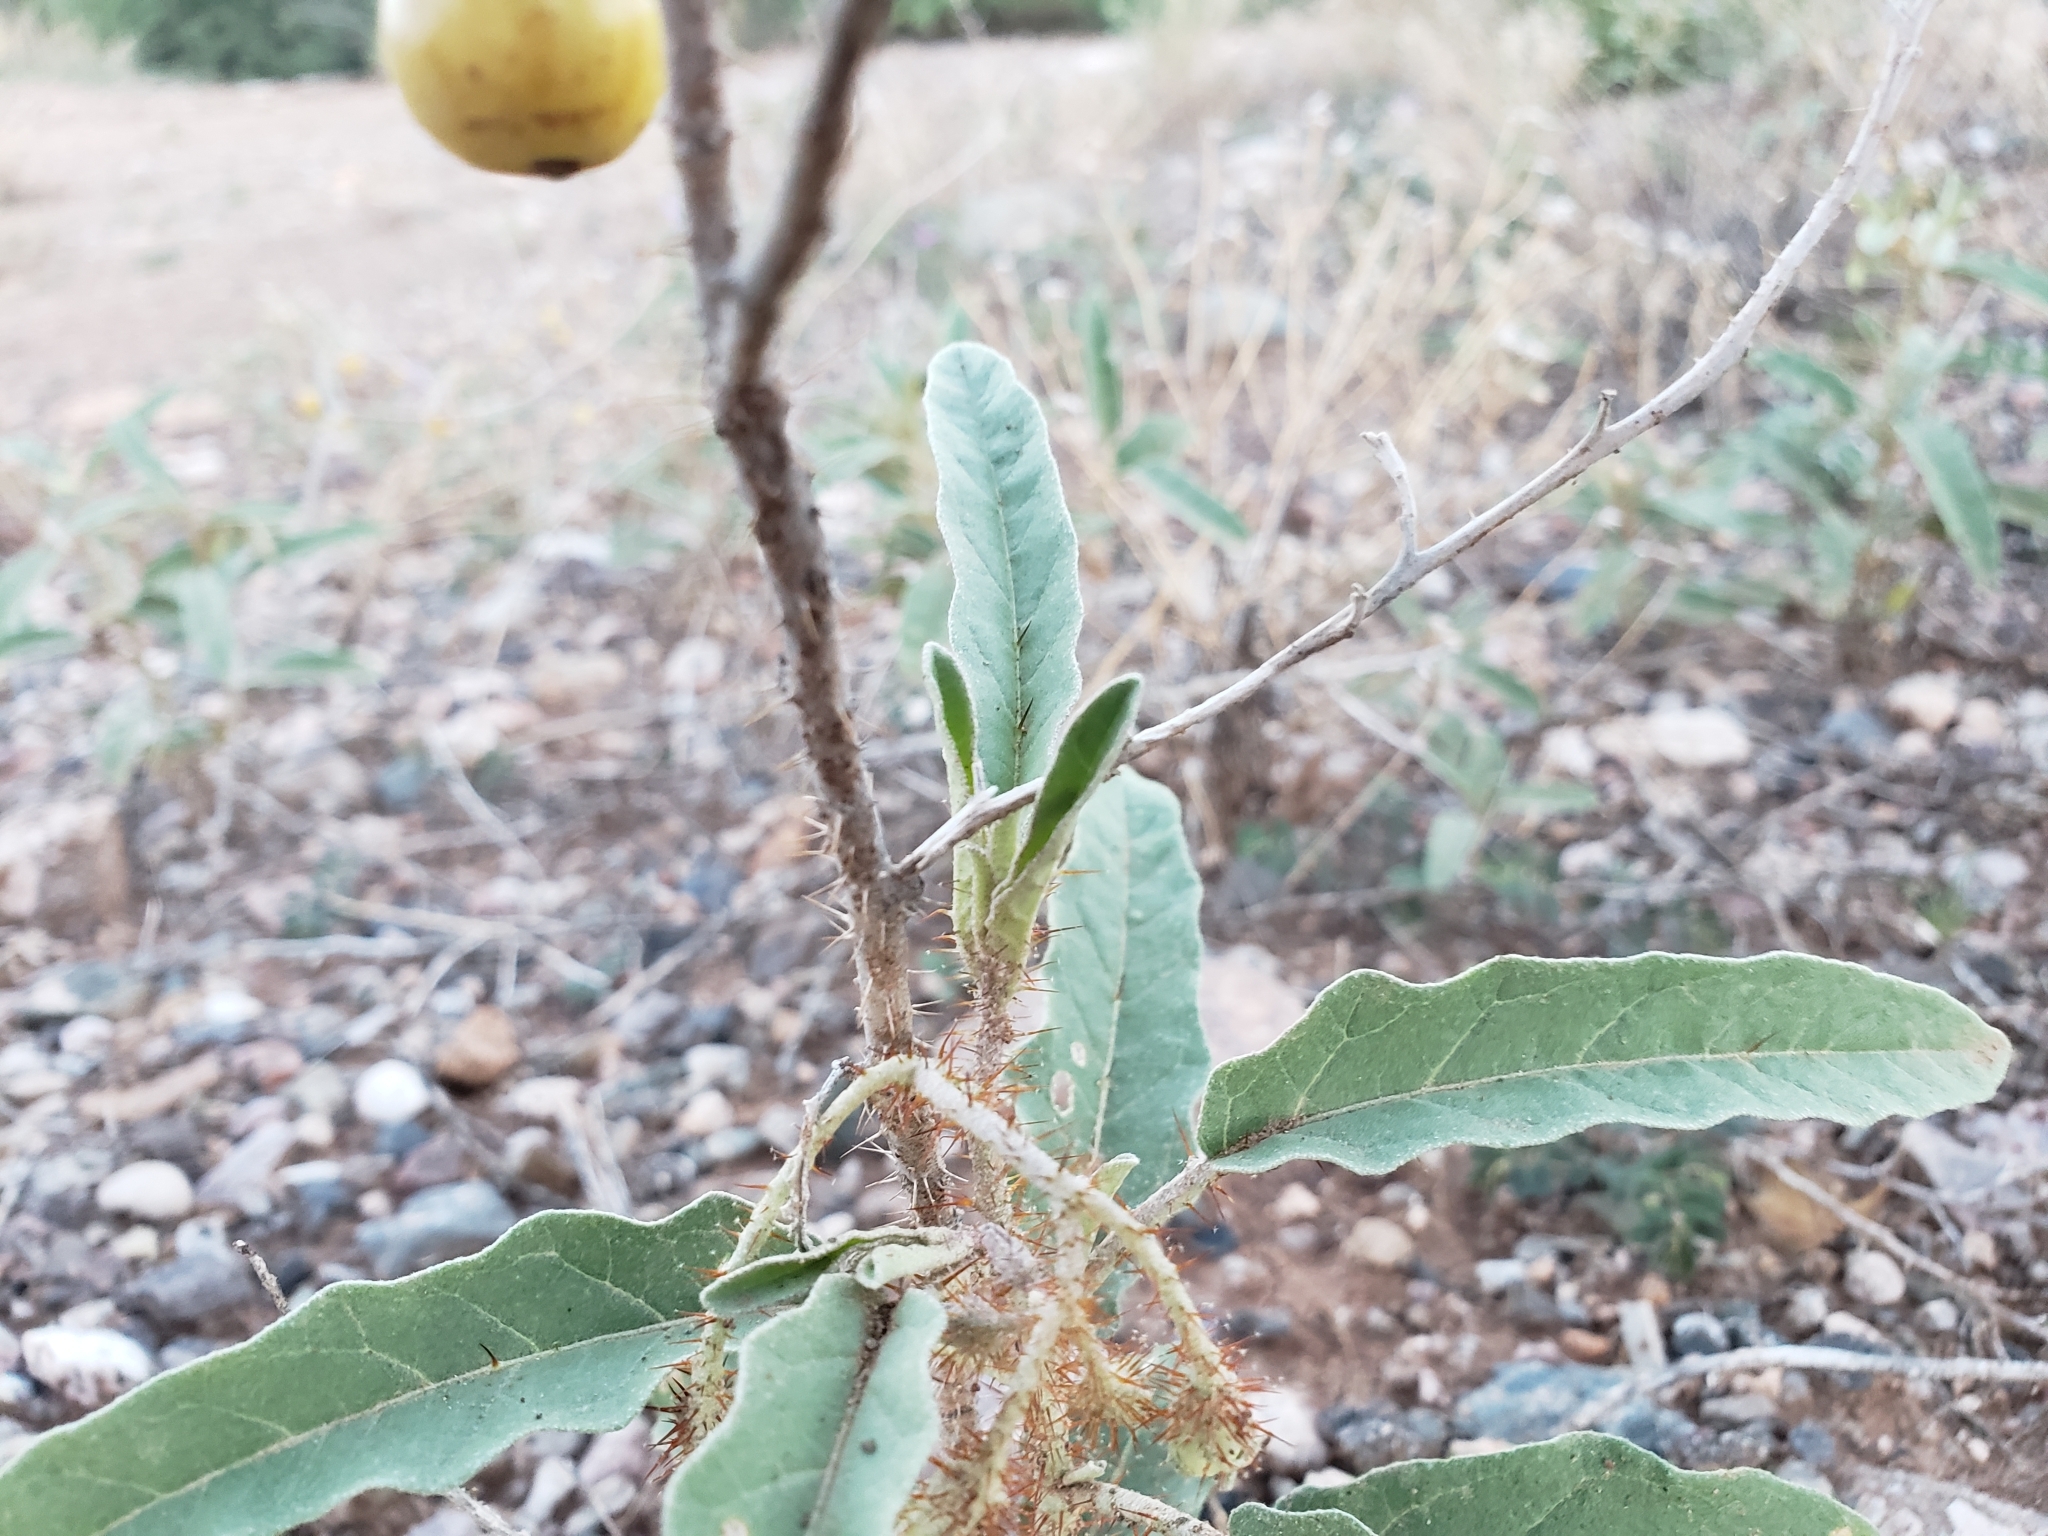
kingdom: Plantae
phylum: Tracheophyta
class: Magnoliopsida
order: Solanales
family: Solanaceae
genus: Solanum
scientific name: Solanum elaeagnifolium
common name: Silverleaf nightshade
